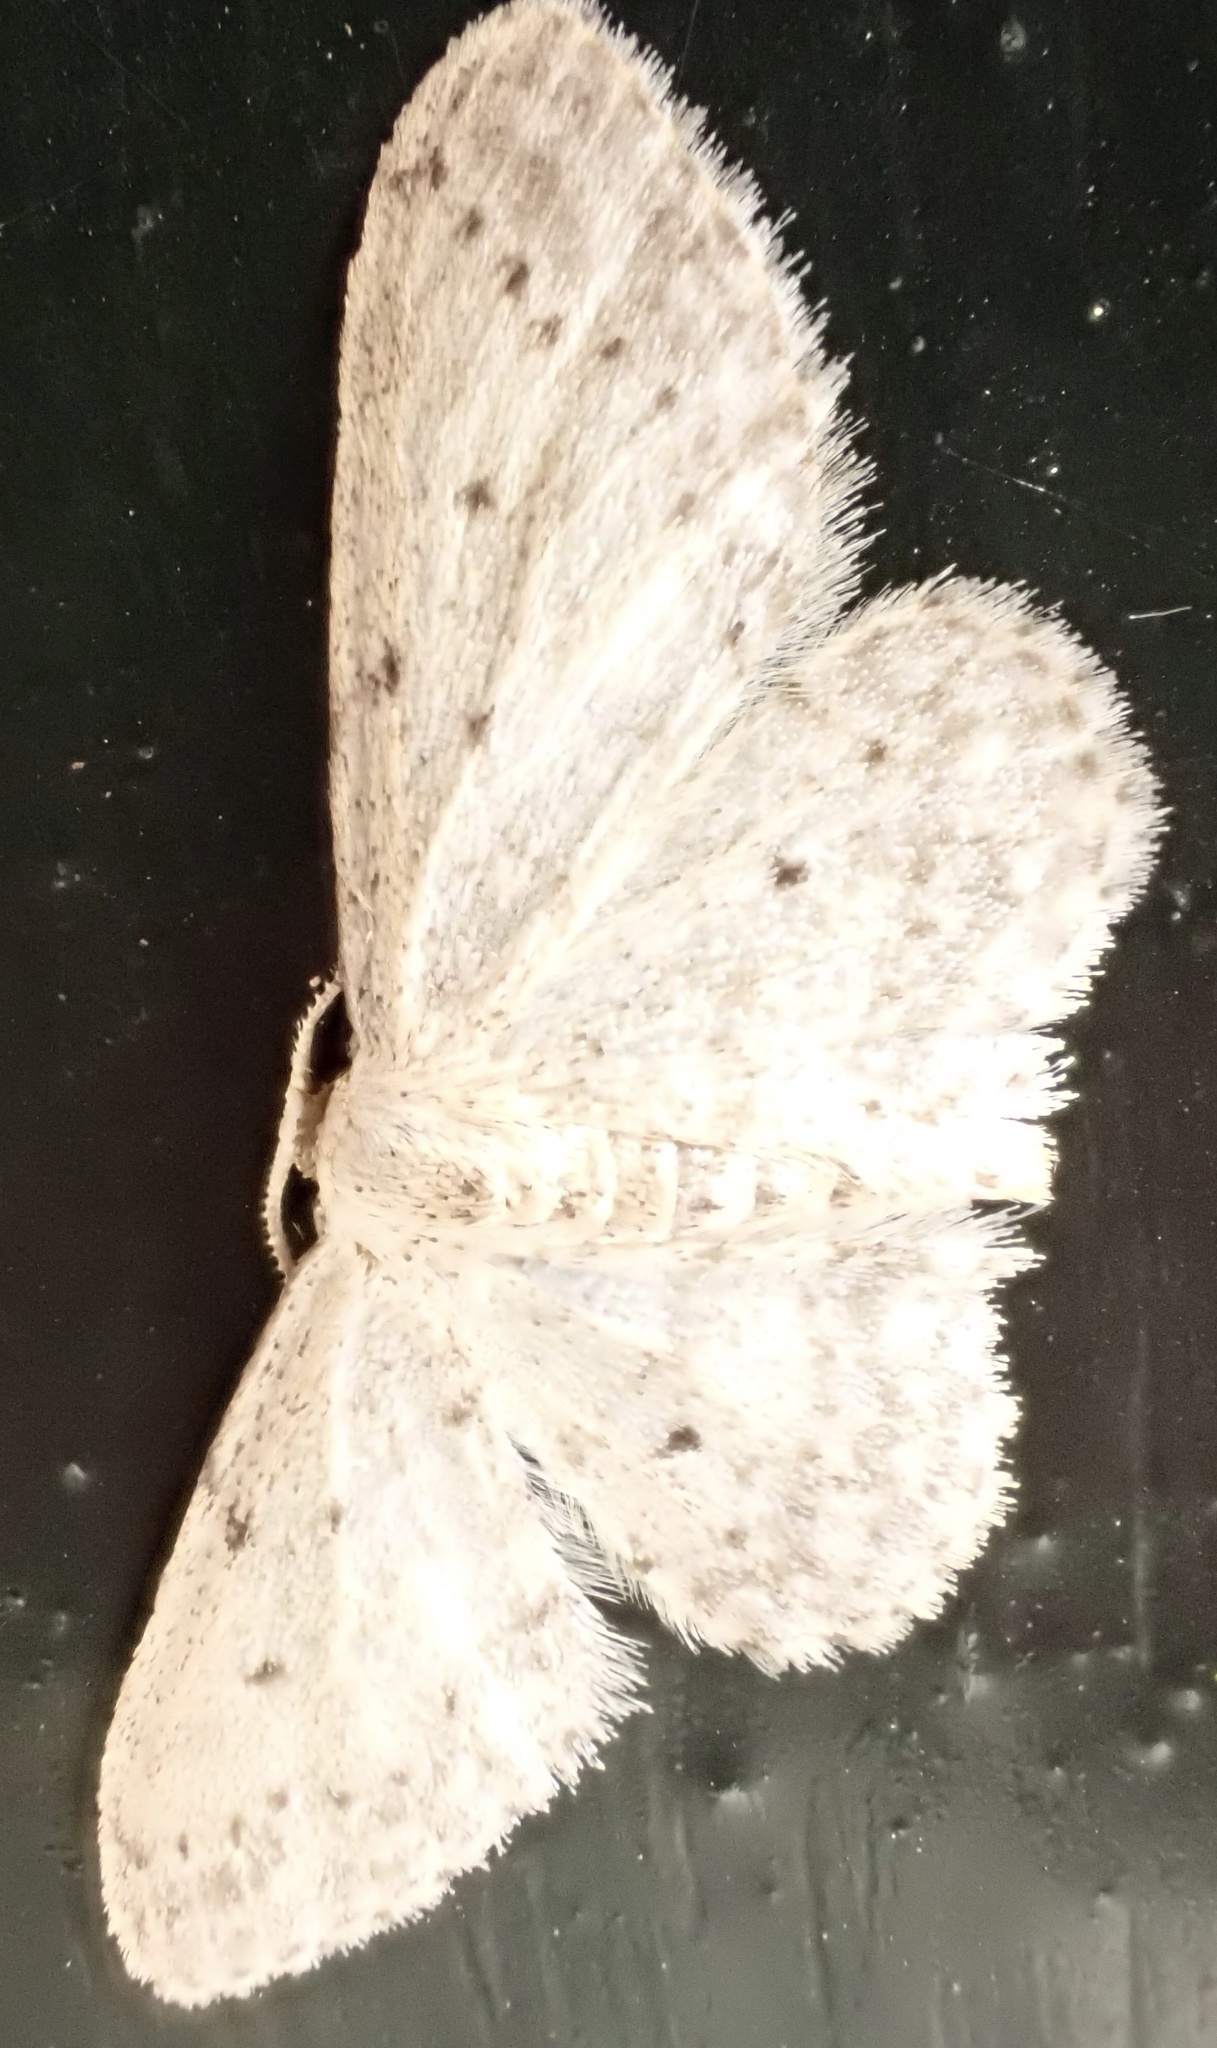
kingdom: Animalia
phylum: Arthropoda
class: Insecta
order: Lepidoptera
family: Geometridae
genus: Idaea
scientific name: Idaea seriata
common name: Small dusty wave
